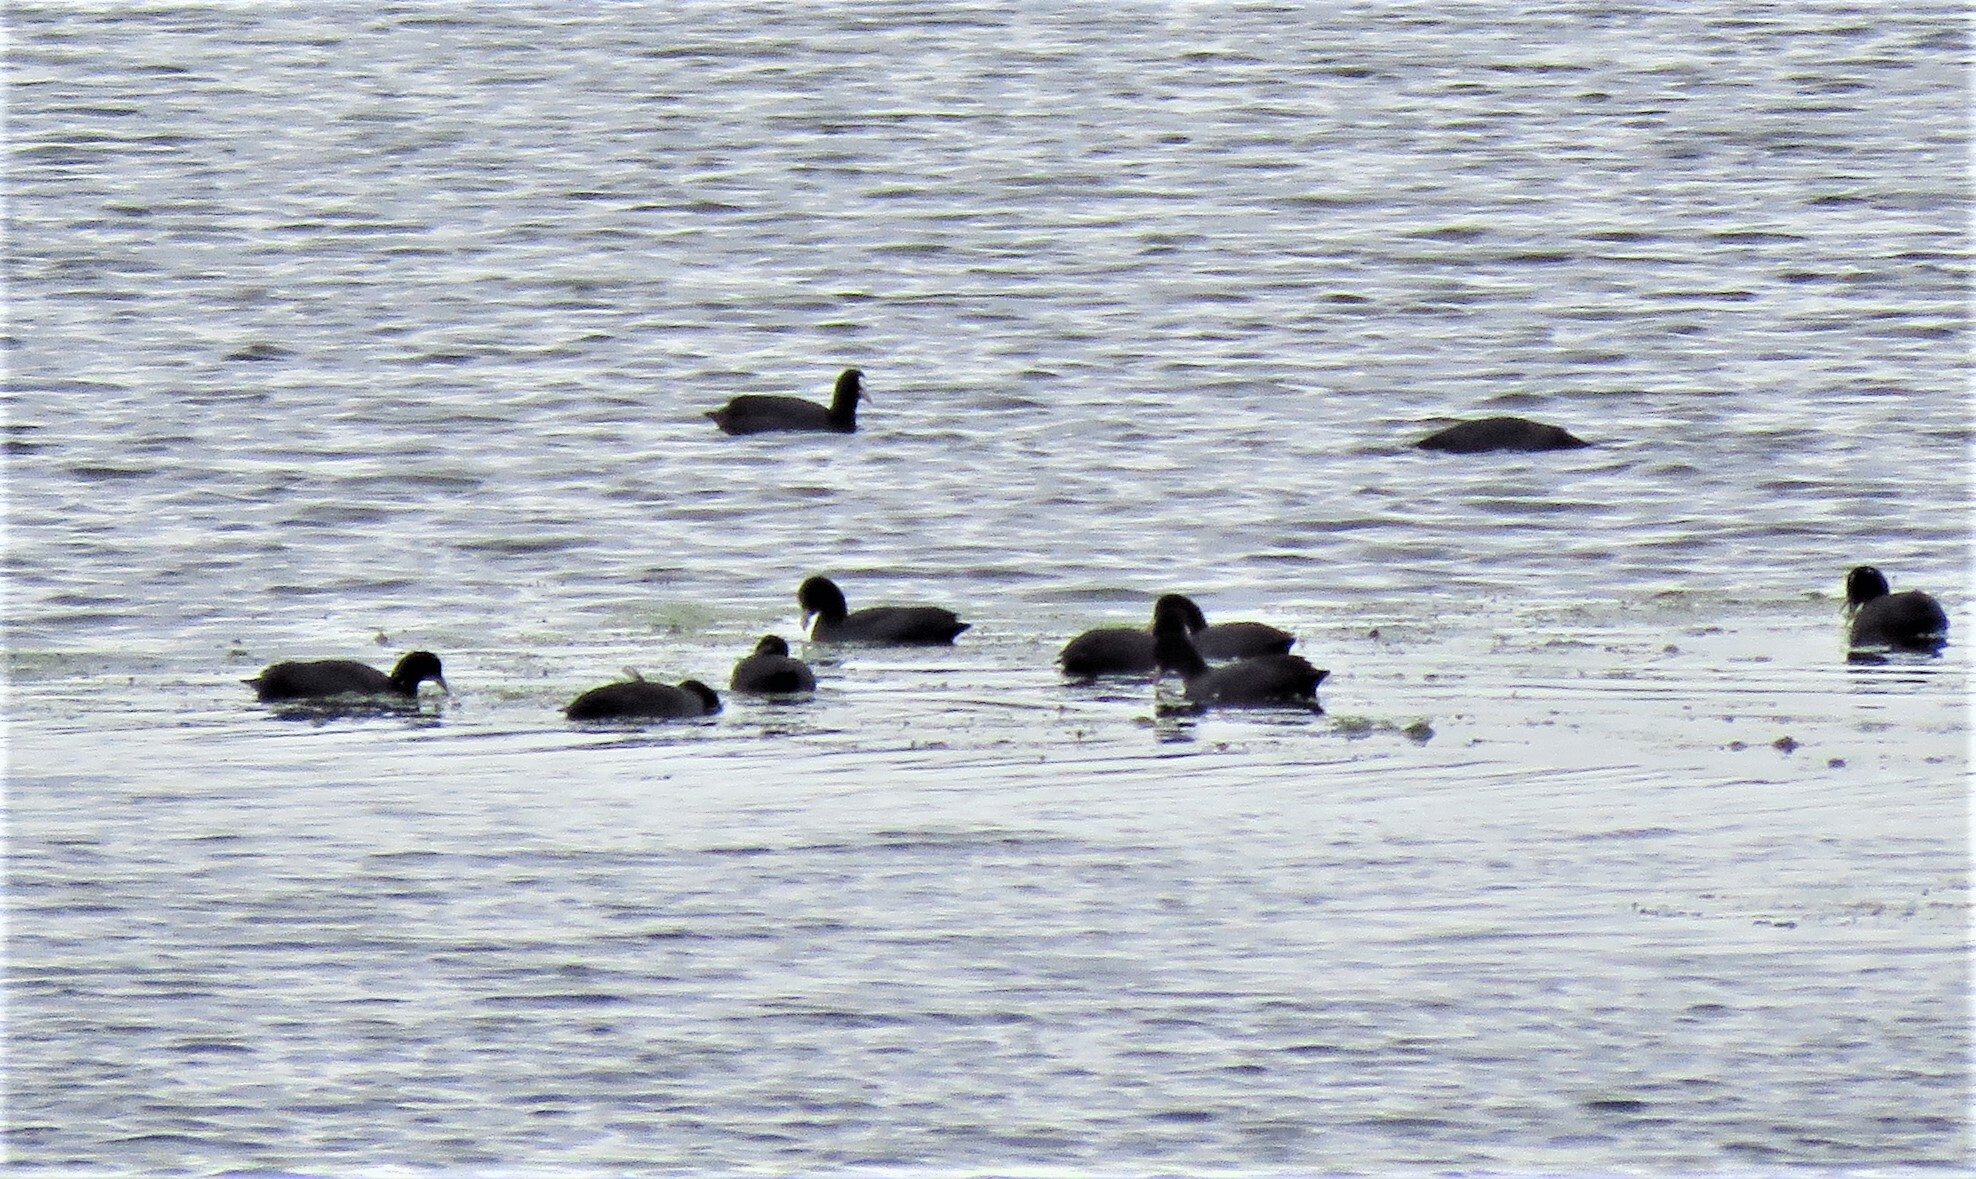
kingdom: Animalia
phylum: Chordata
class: Aves
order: Gruiformes
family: Rallidae
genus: Fulica
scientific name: Fulica atra
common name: Eurasian coot
